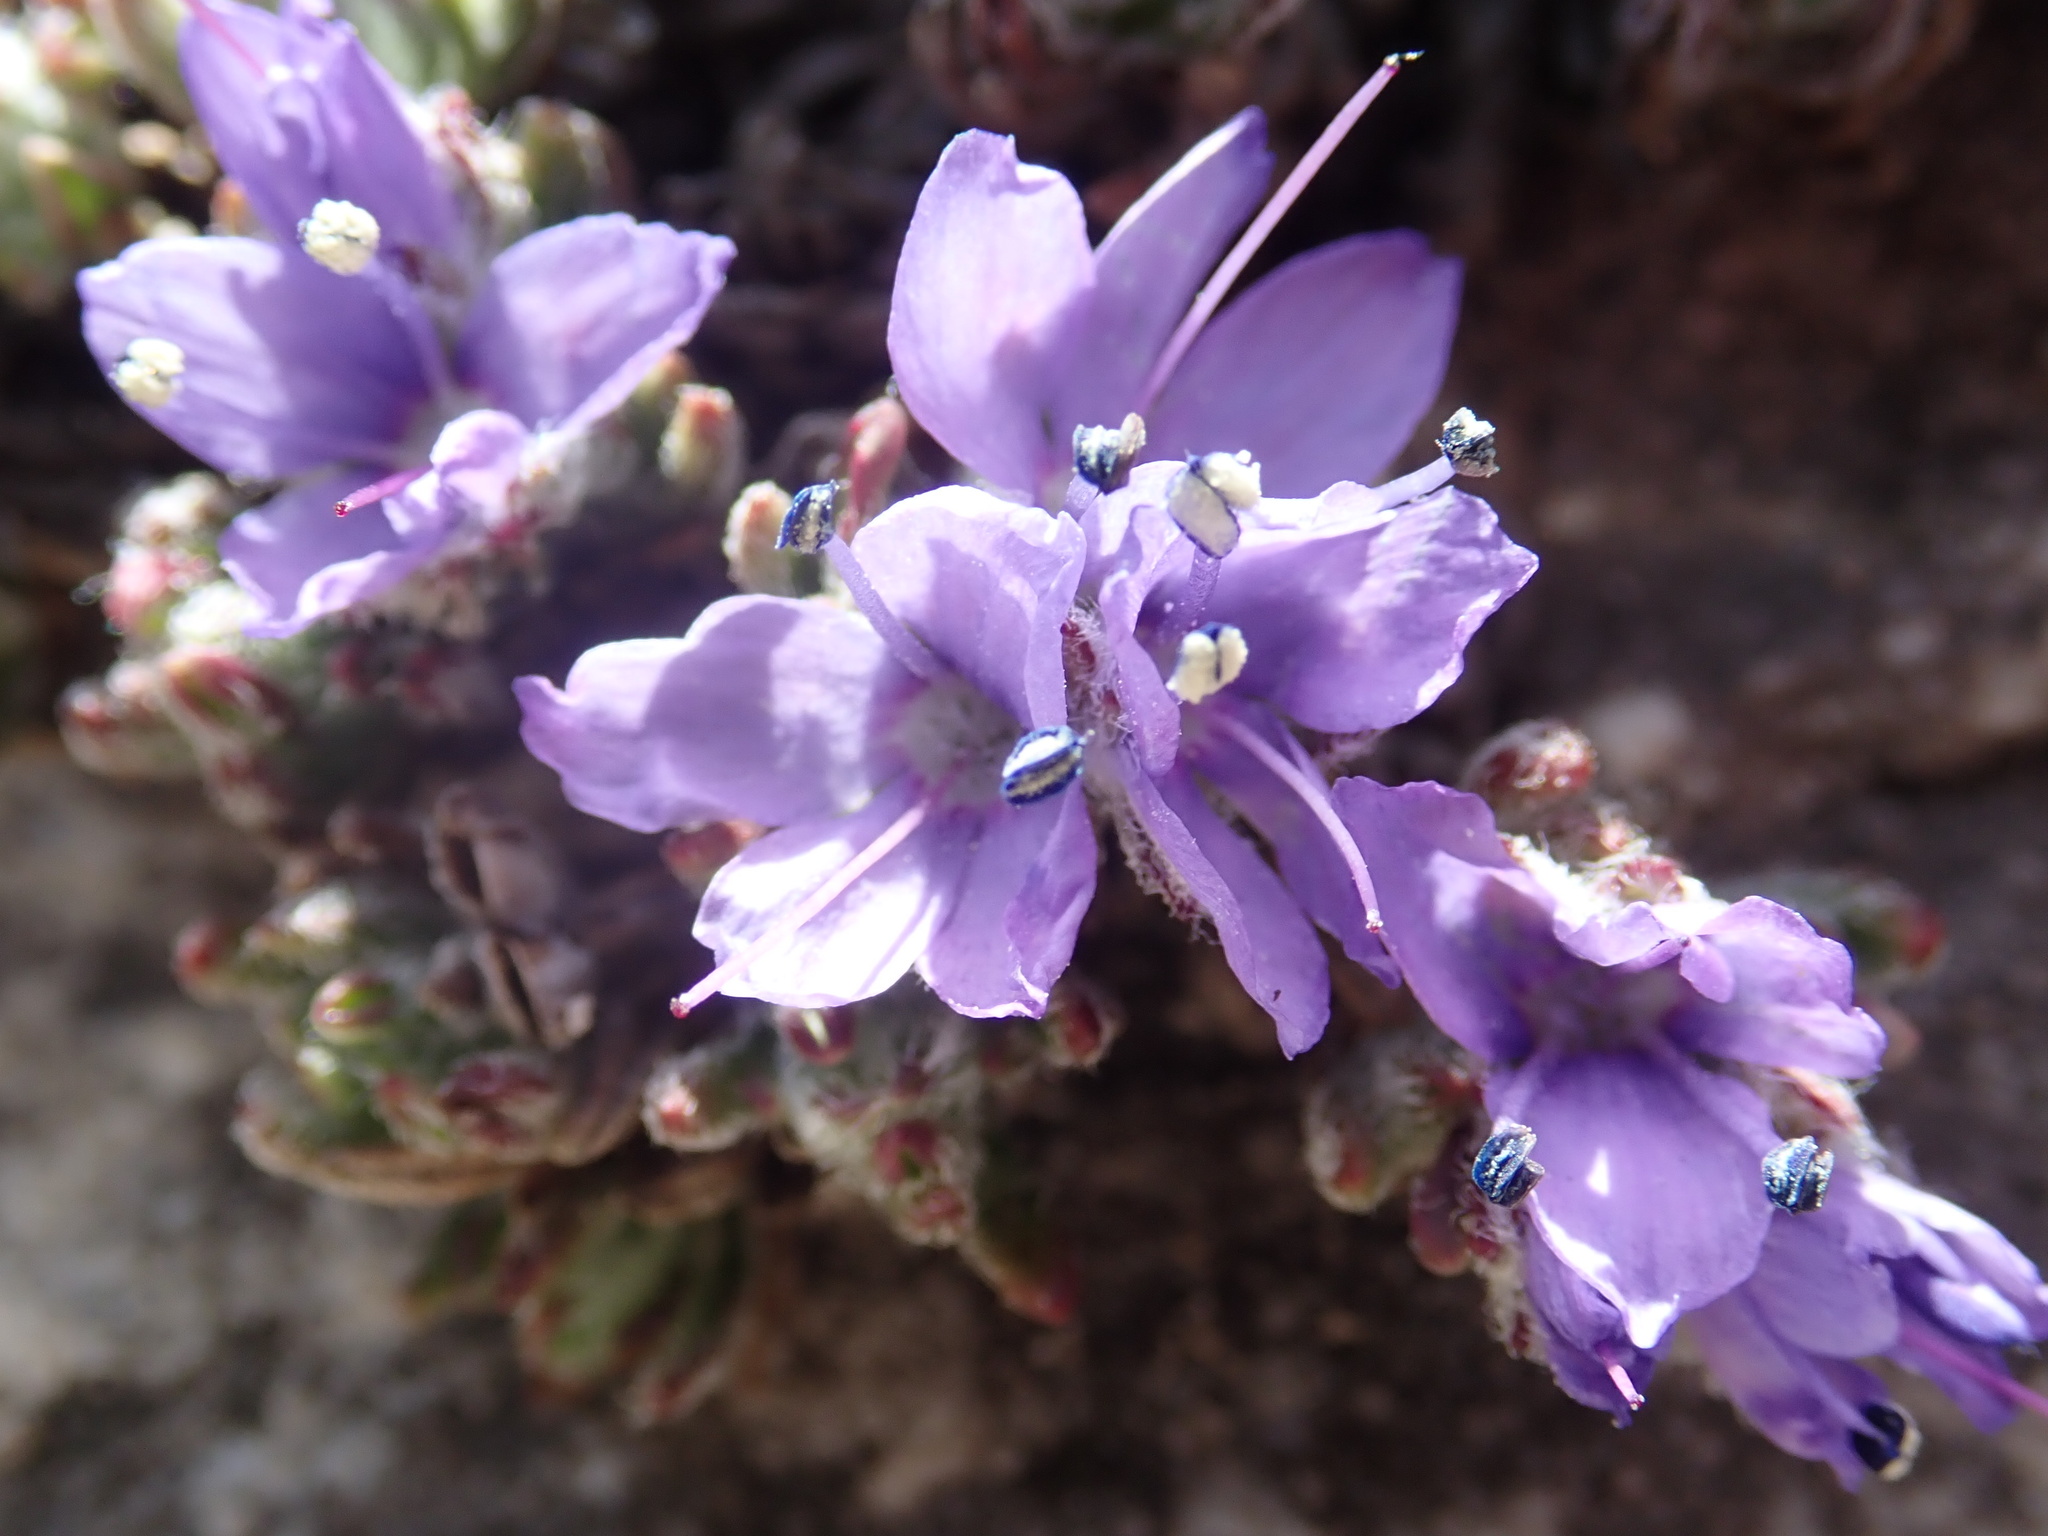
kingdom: Plantae
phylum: Tracheophyta
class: Magnoliopsida
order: Lamiales
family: Plantaginaceae
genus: Veronica
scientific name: Veronica caespitosa
